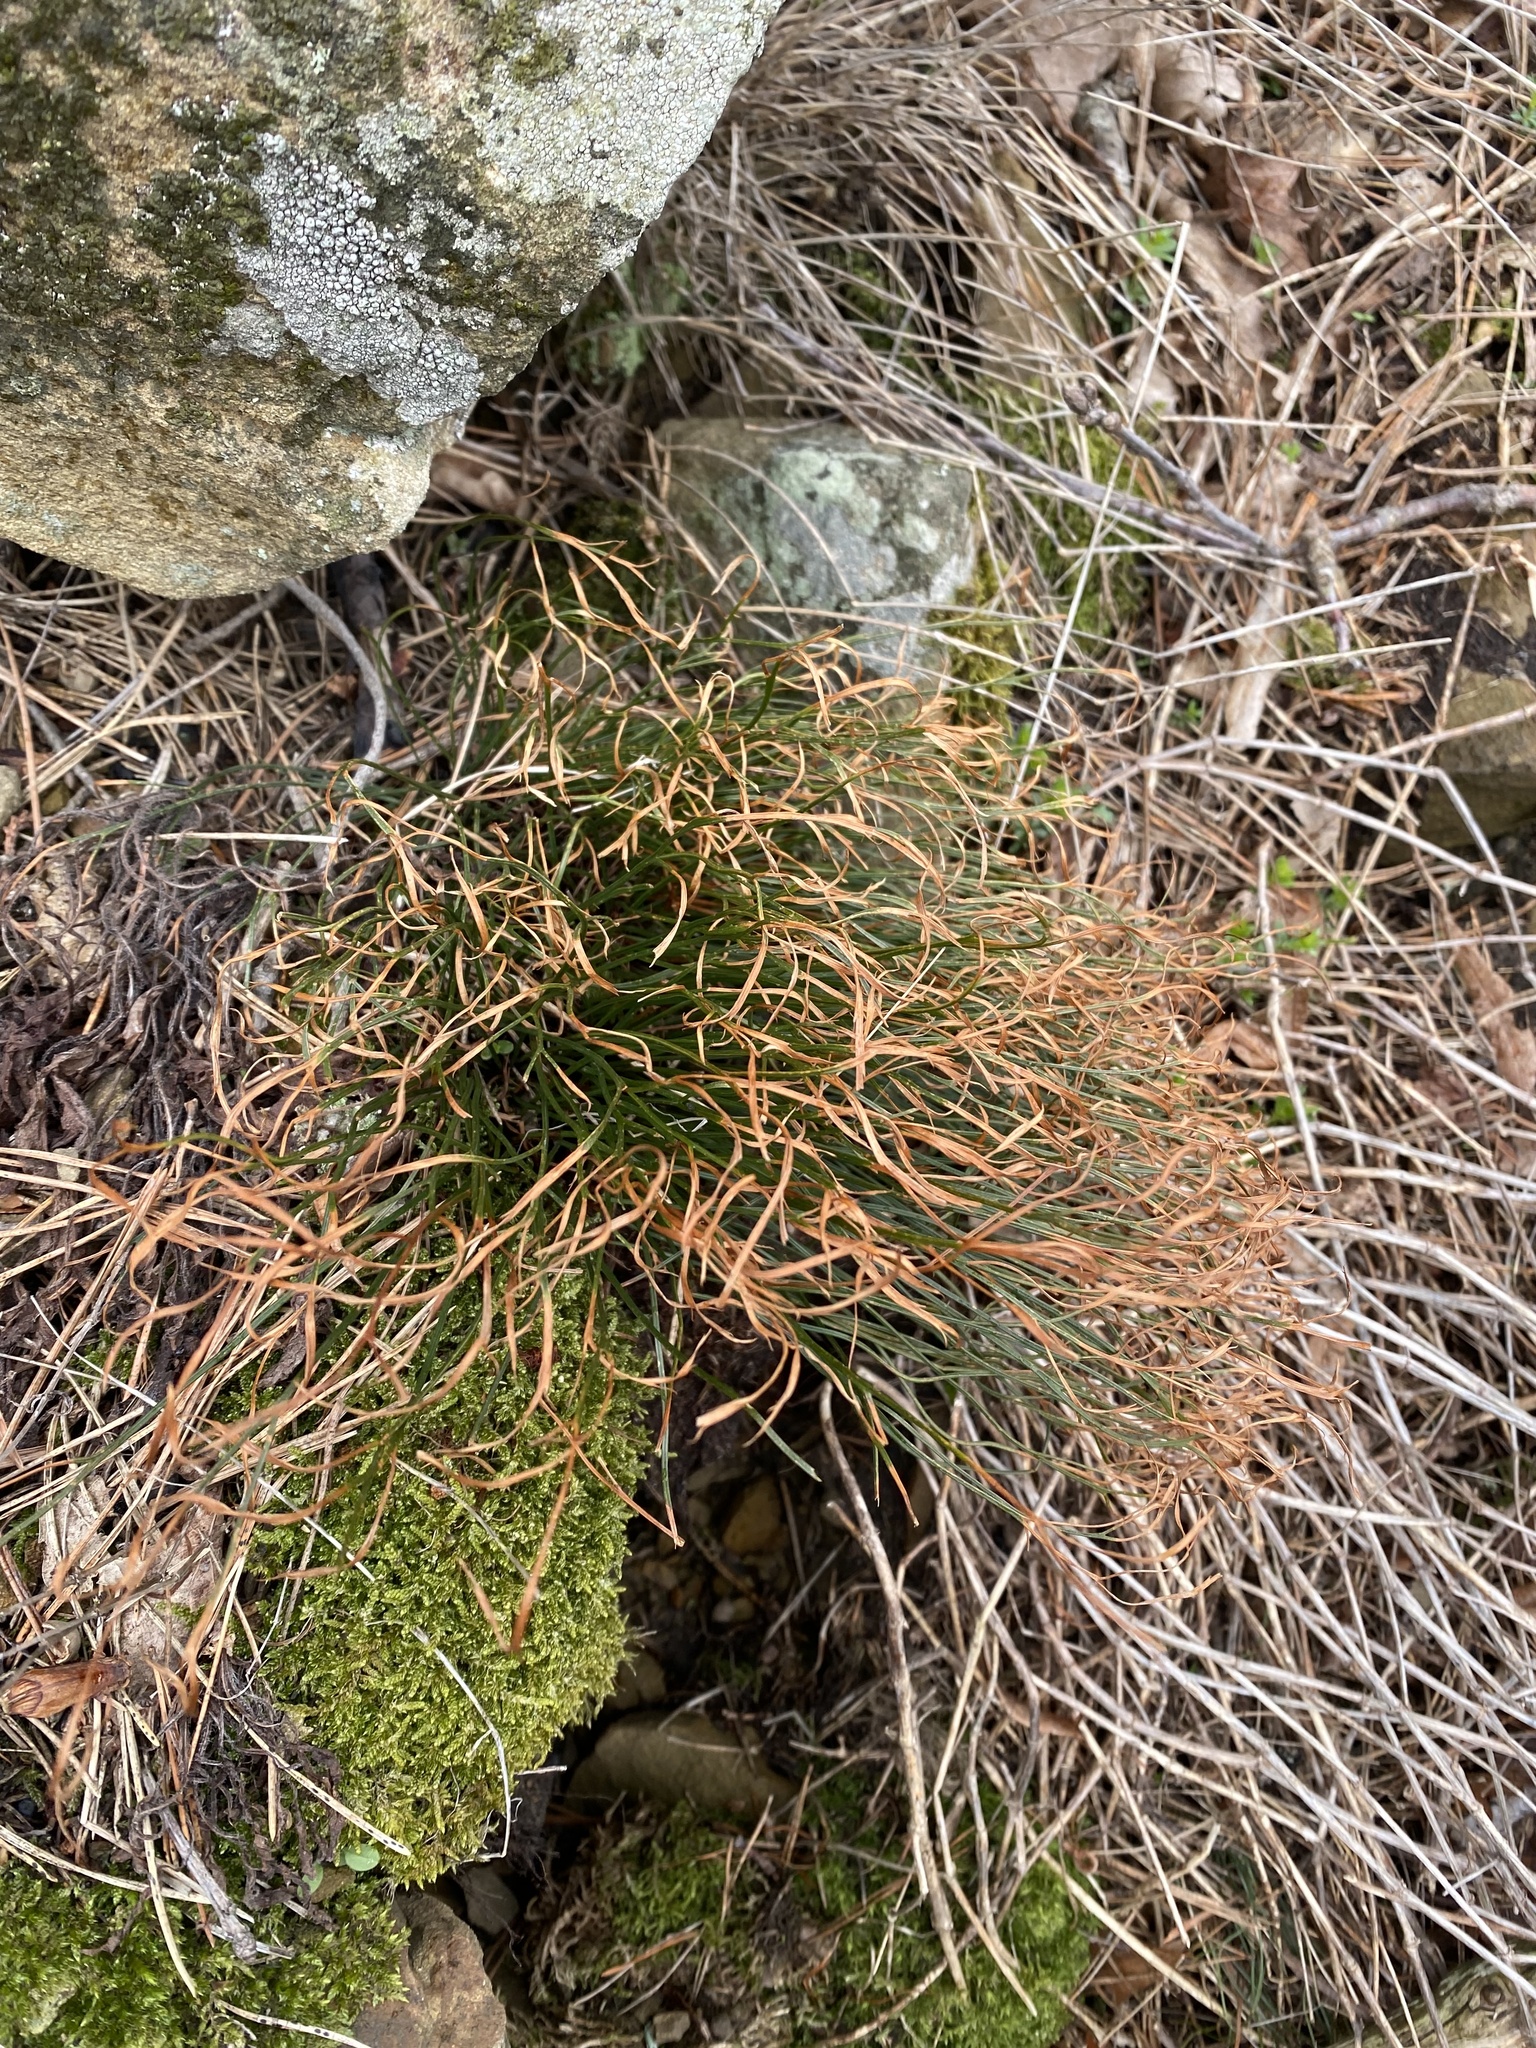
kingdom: Plantae
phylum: Tracheophyta
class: Polypodiopsida
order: Polypodiales
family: Aspleniaceae
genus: Asplenium
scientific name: Asplenium septentrionale
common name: Forked spleenwort
